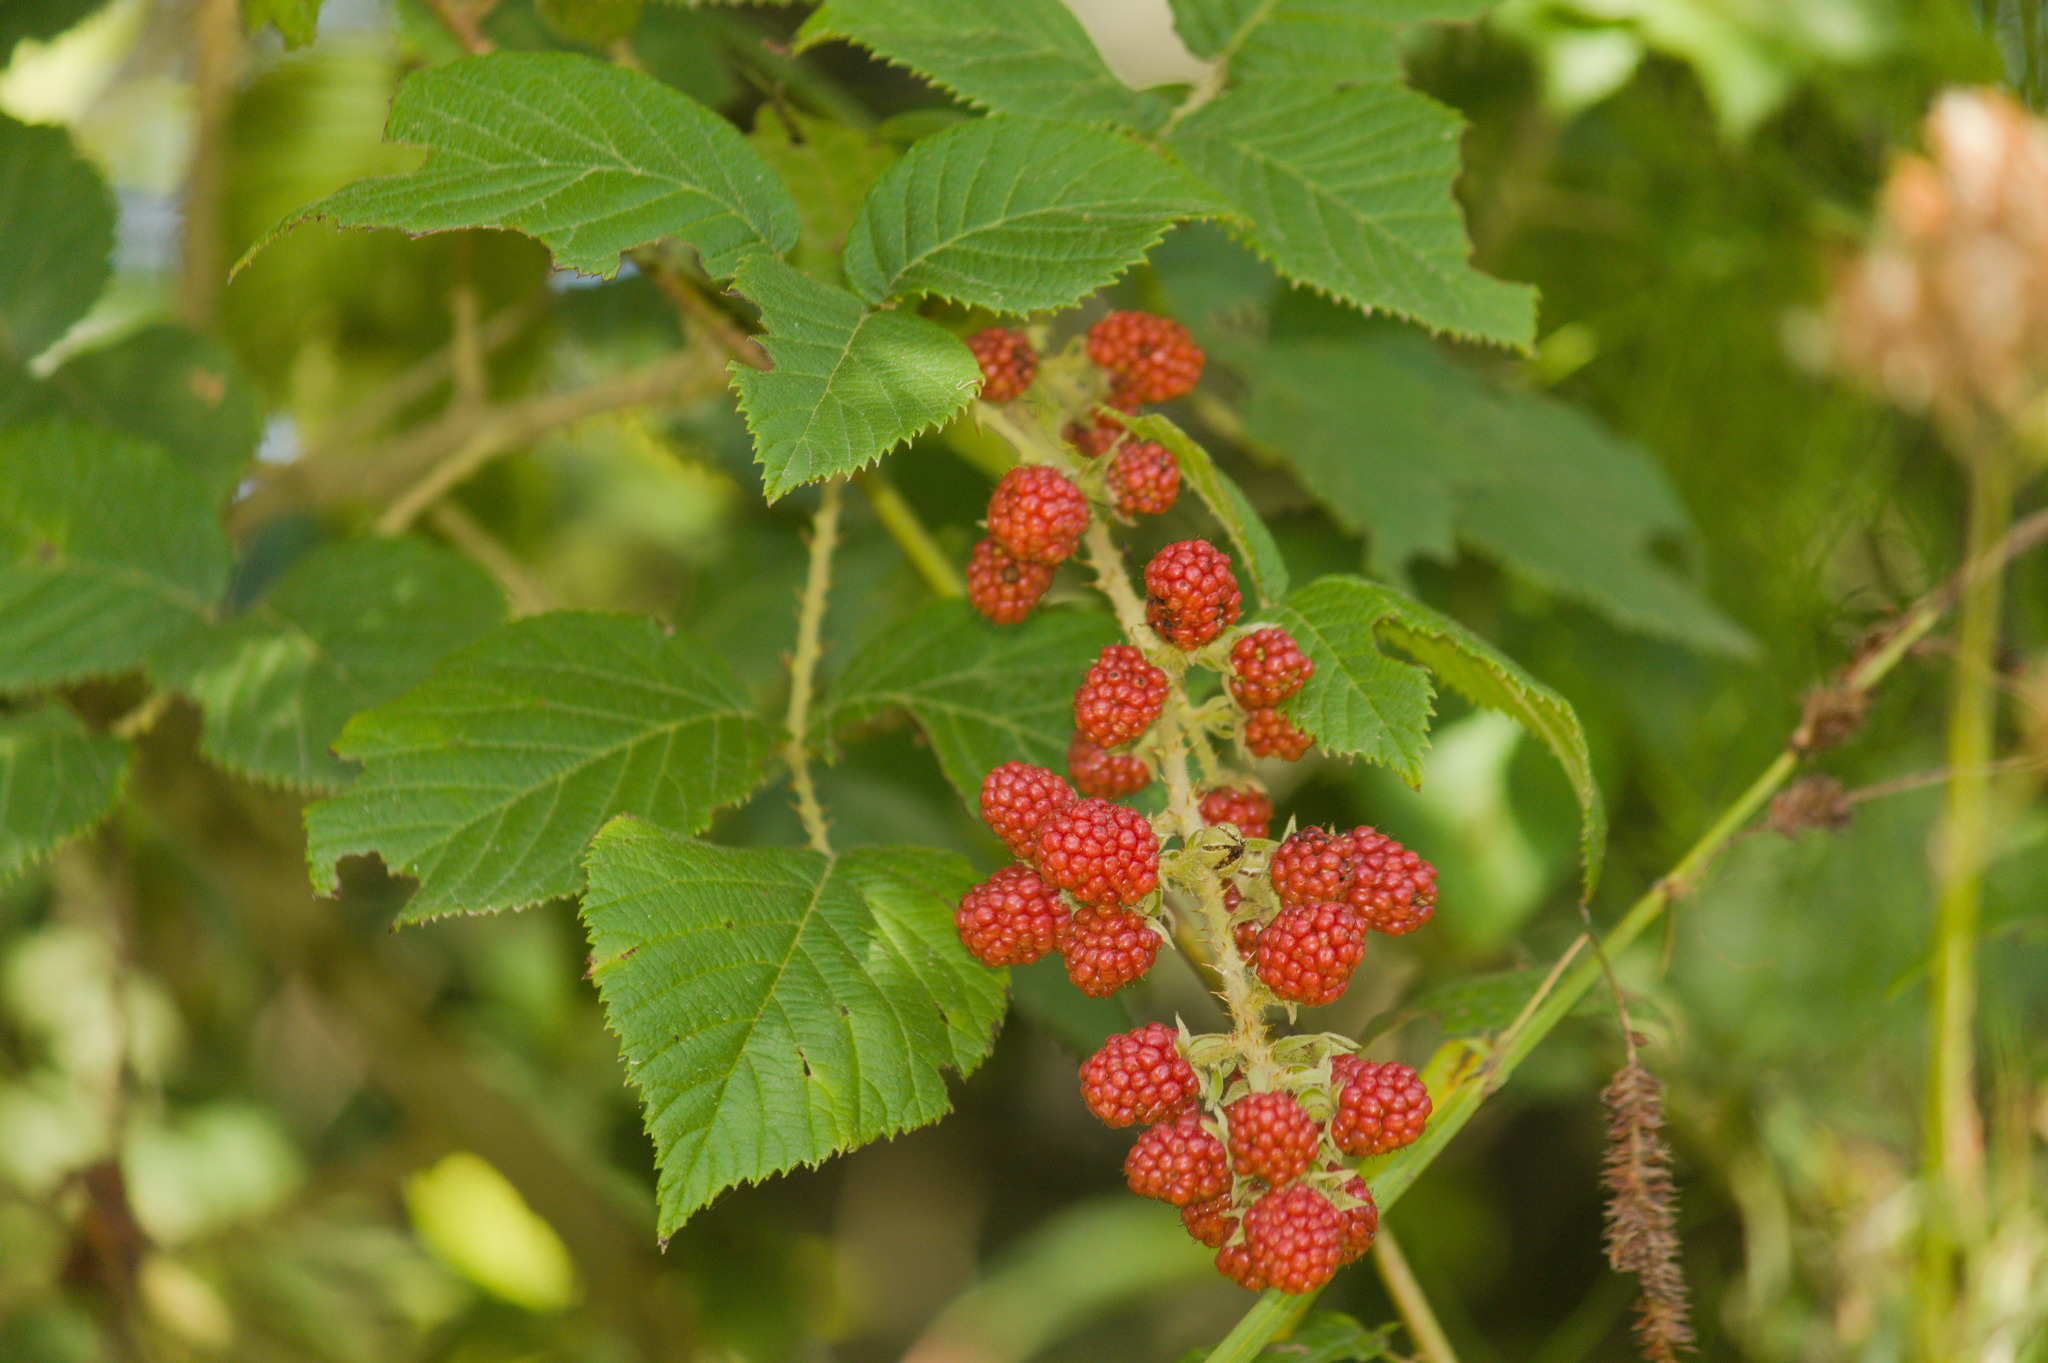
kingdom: Plantae
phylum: Tracheophyta
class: Magnoliopsida
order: Rosales
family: Rosaceae
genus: Rubus
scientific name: Rubus sellowii
